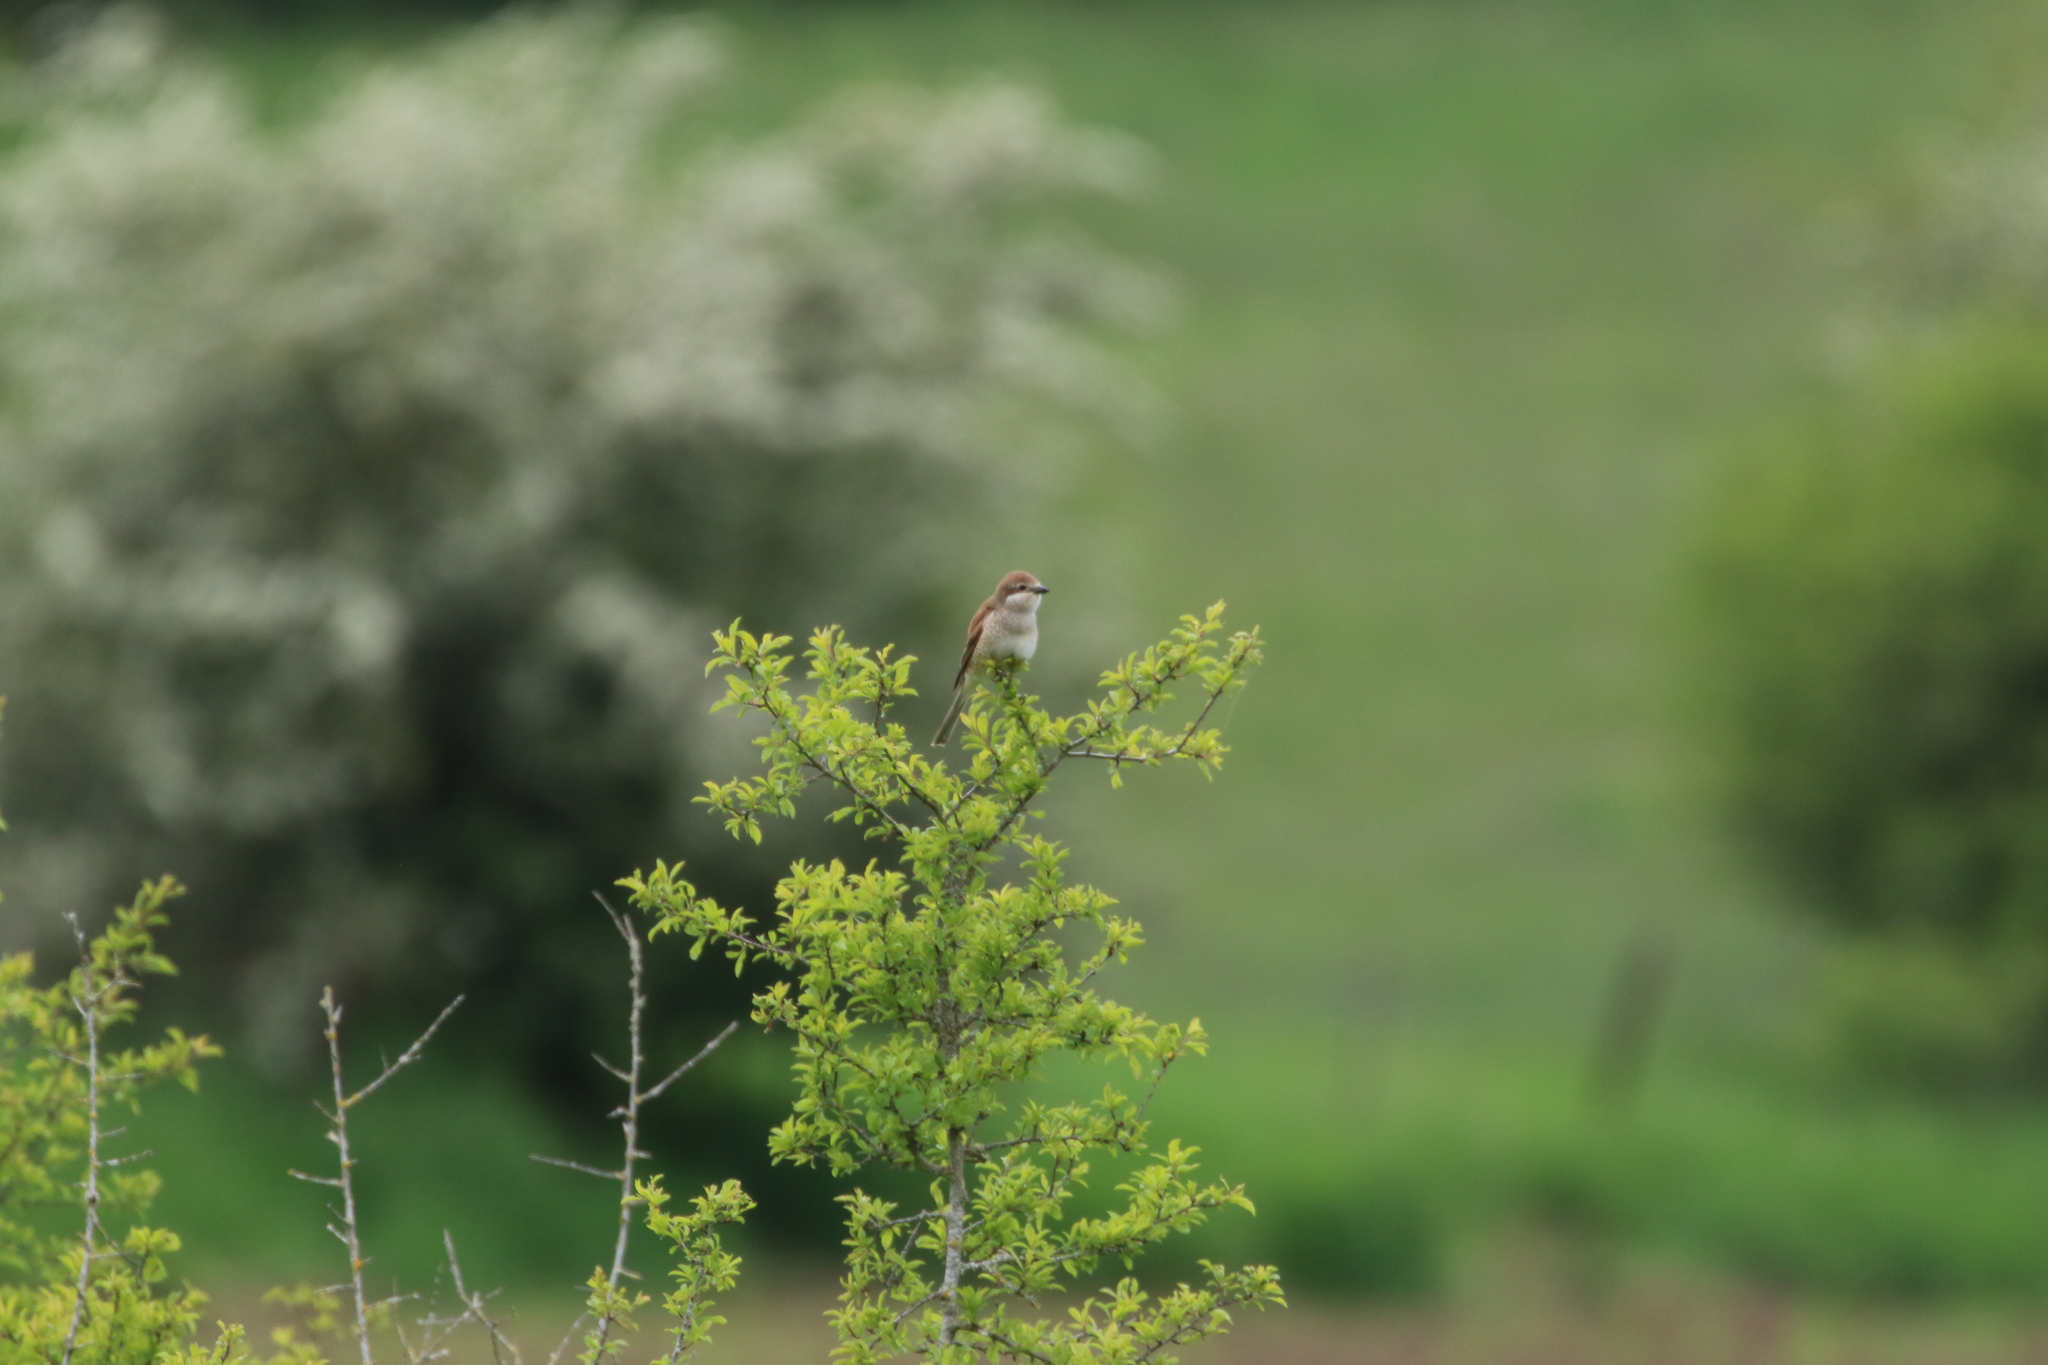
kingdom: Animalia
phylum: Chordata
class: Aves
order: Passeriformes
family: Laniidae
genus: Lanius
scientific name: Lanius collurio
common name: Red-backed shrike
